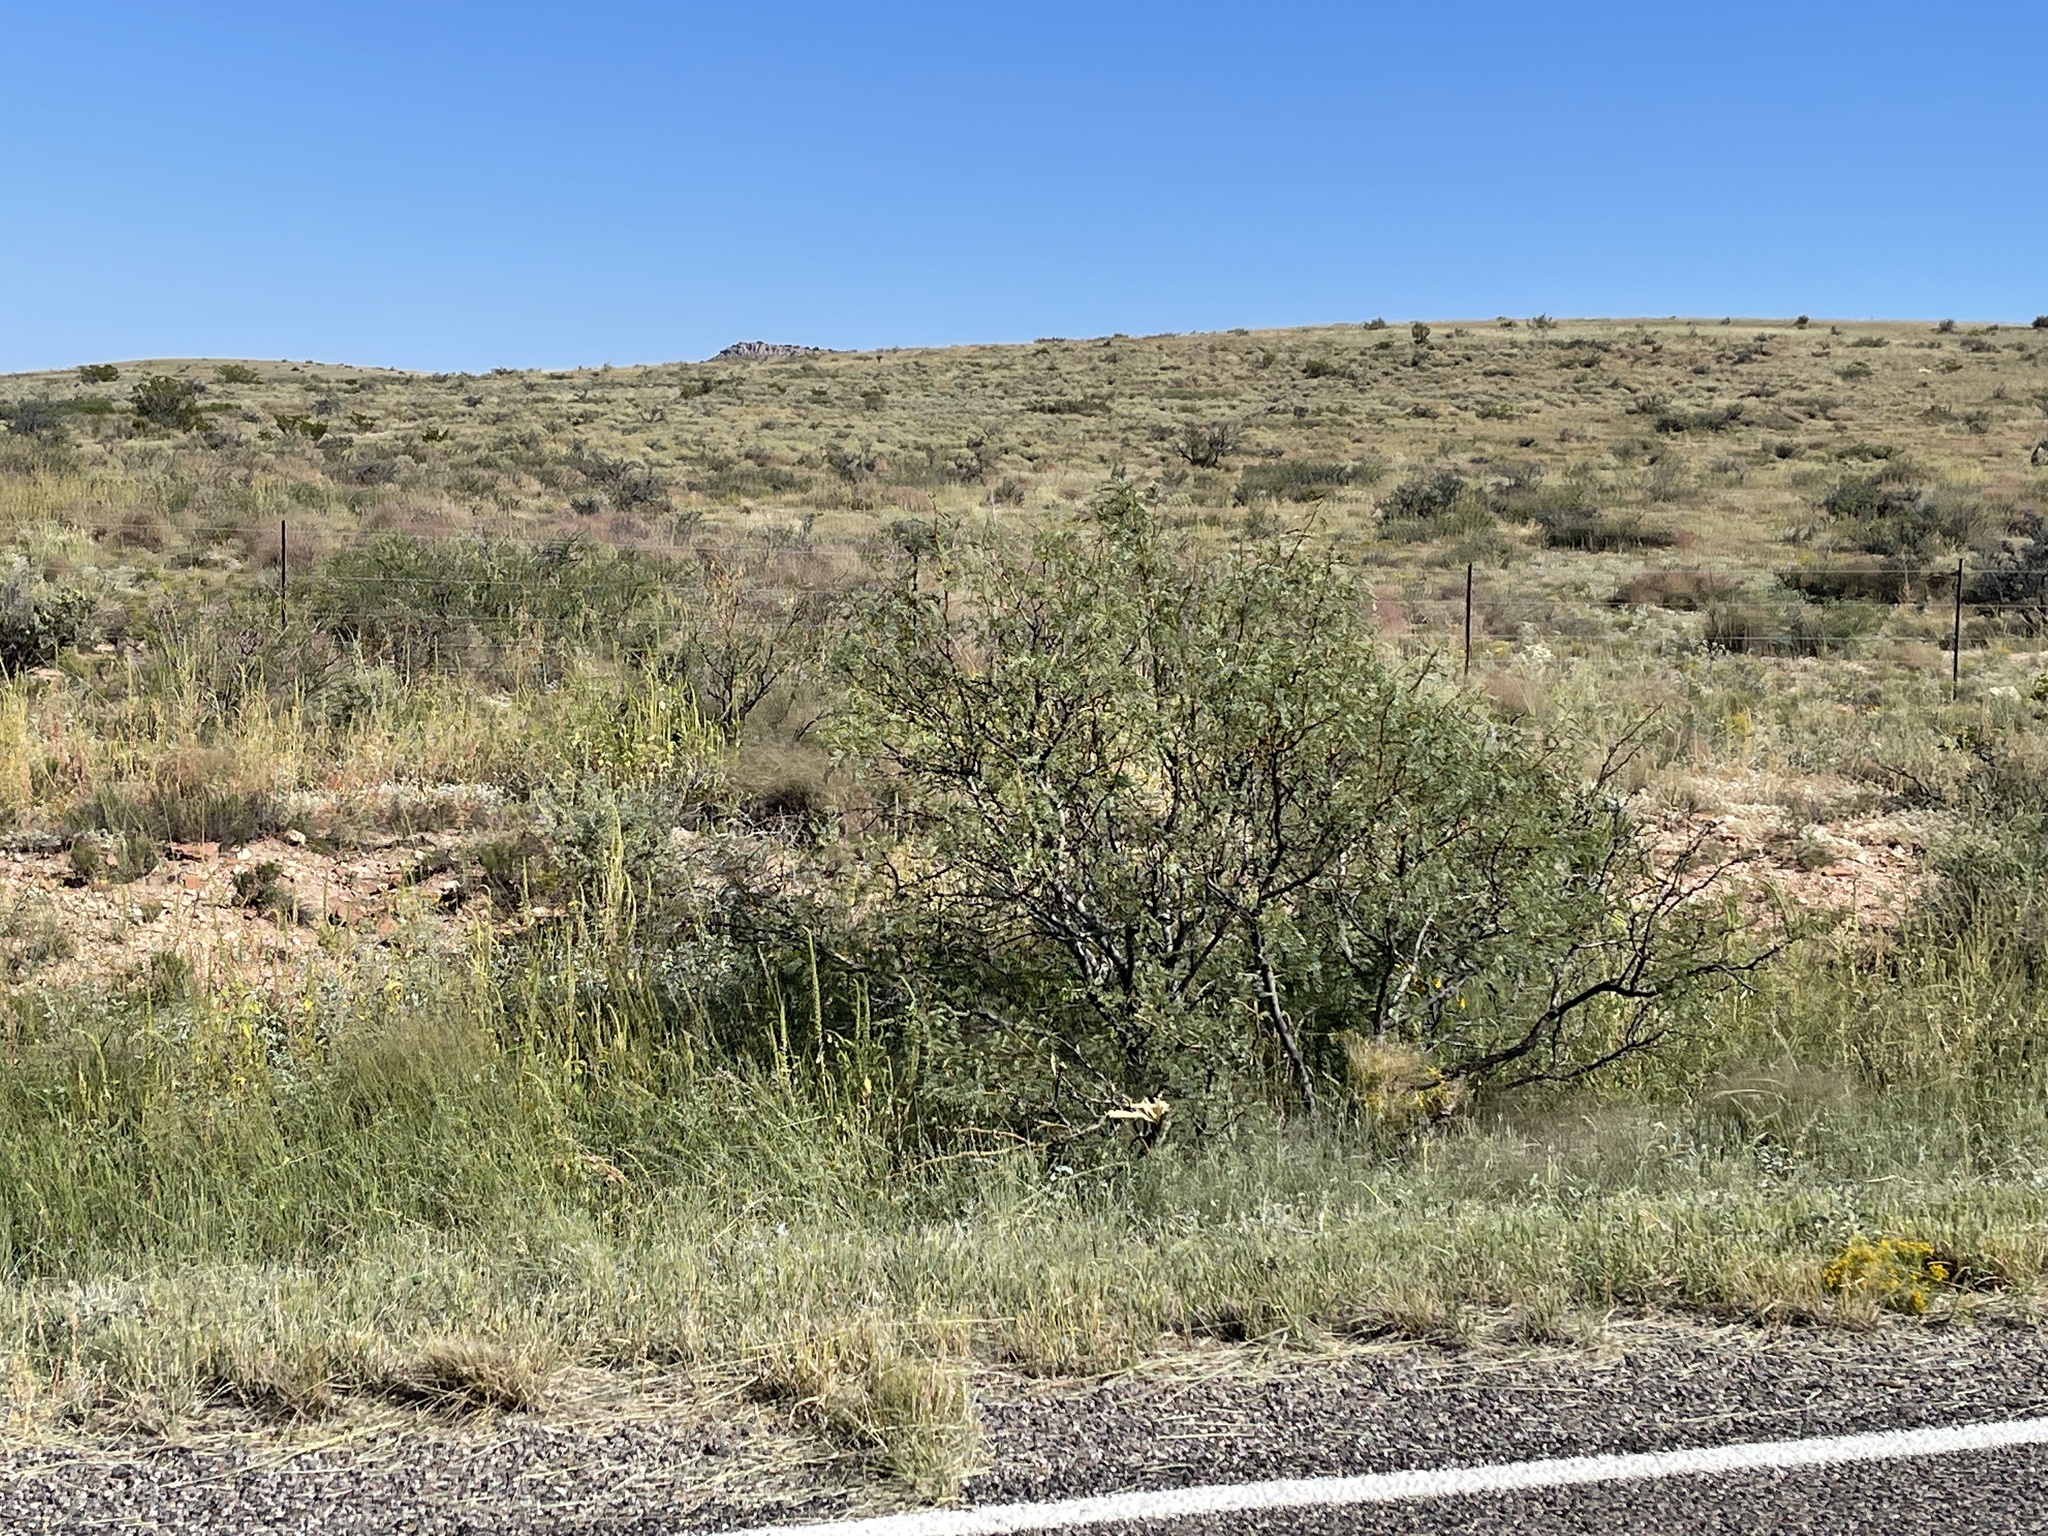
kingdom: Plantae
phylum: Tracheophyta
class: Magnoliopsida
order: Fabales
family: Fabaceae
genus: Prosopis
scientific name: Prosopis glandulosa
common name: Honey mesquite
